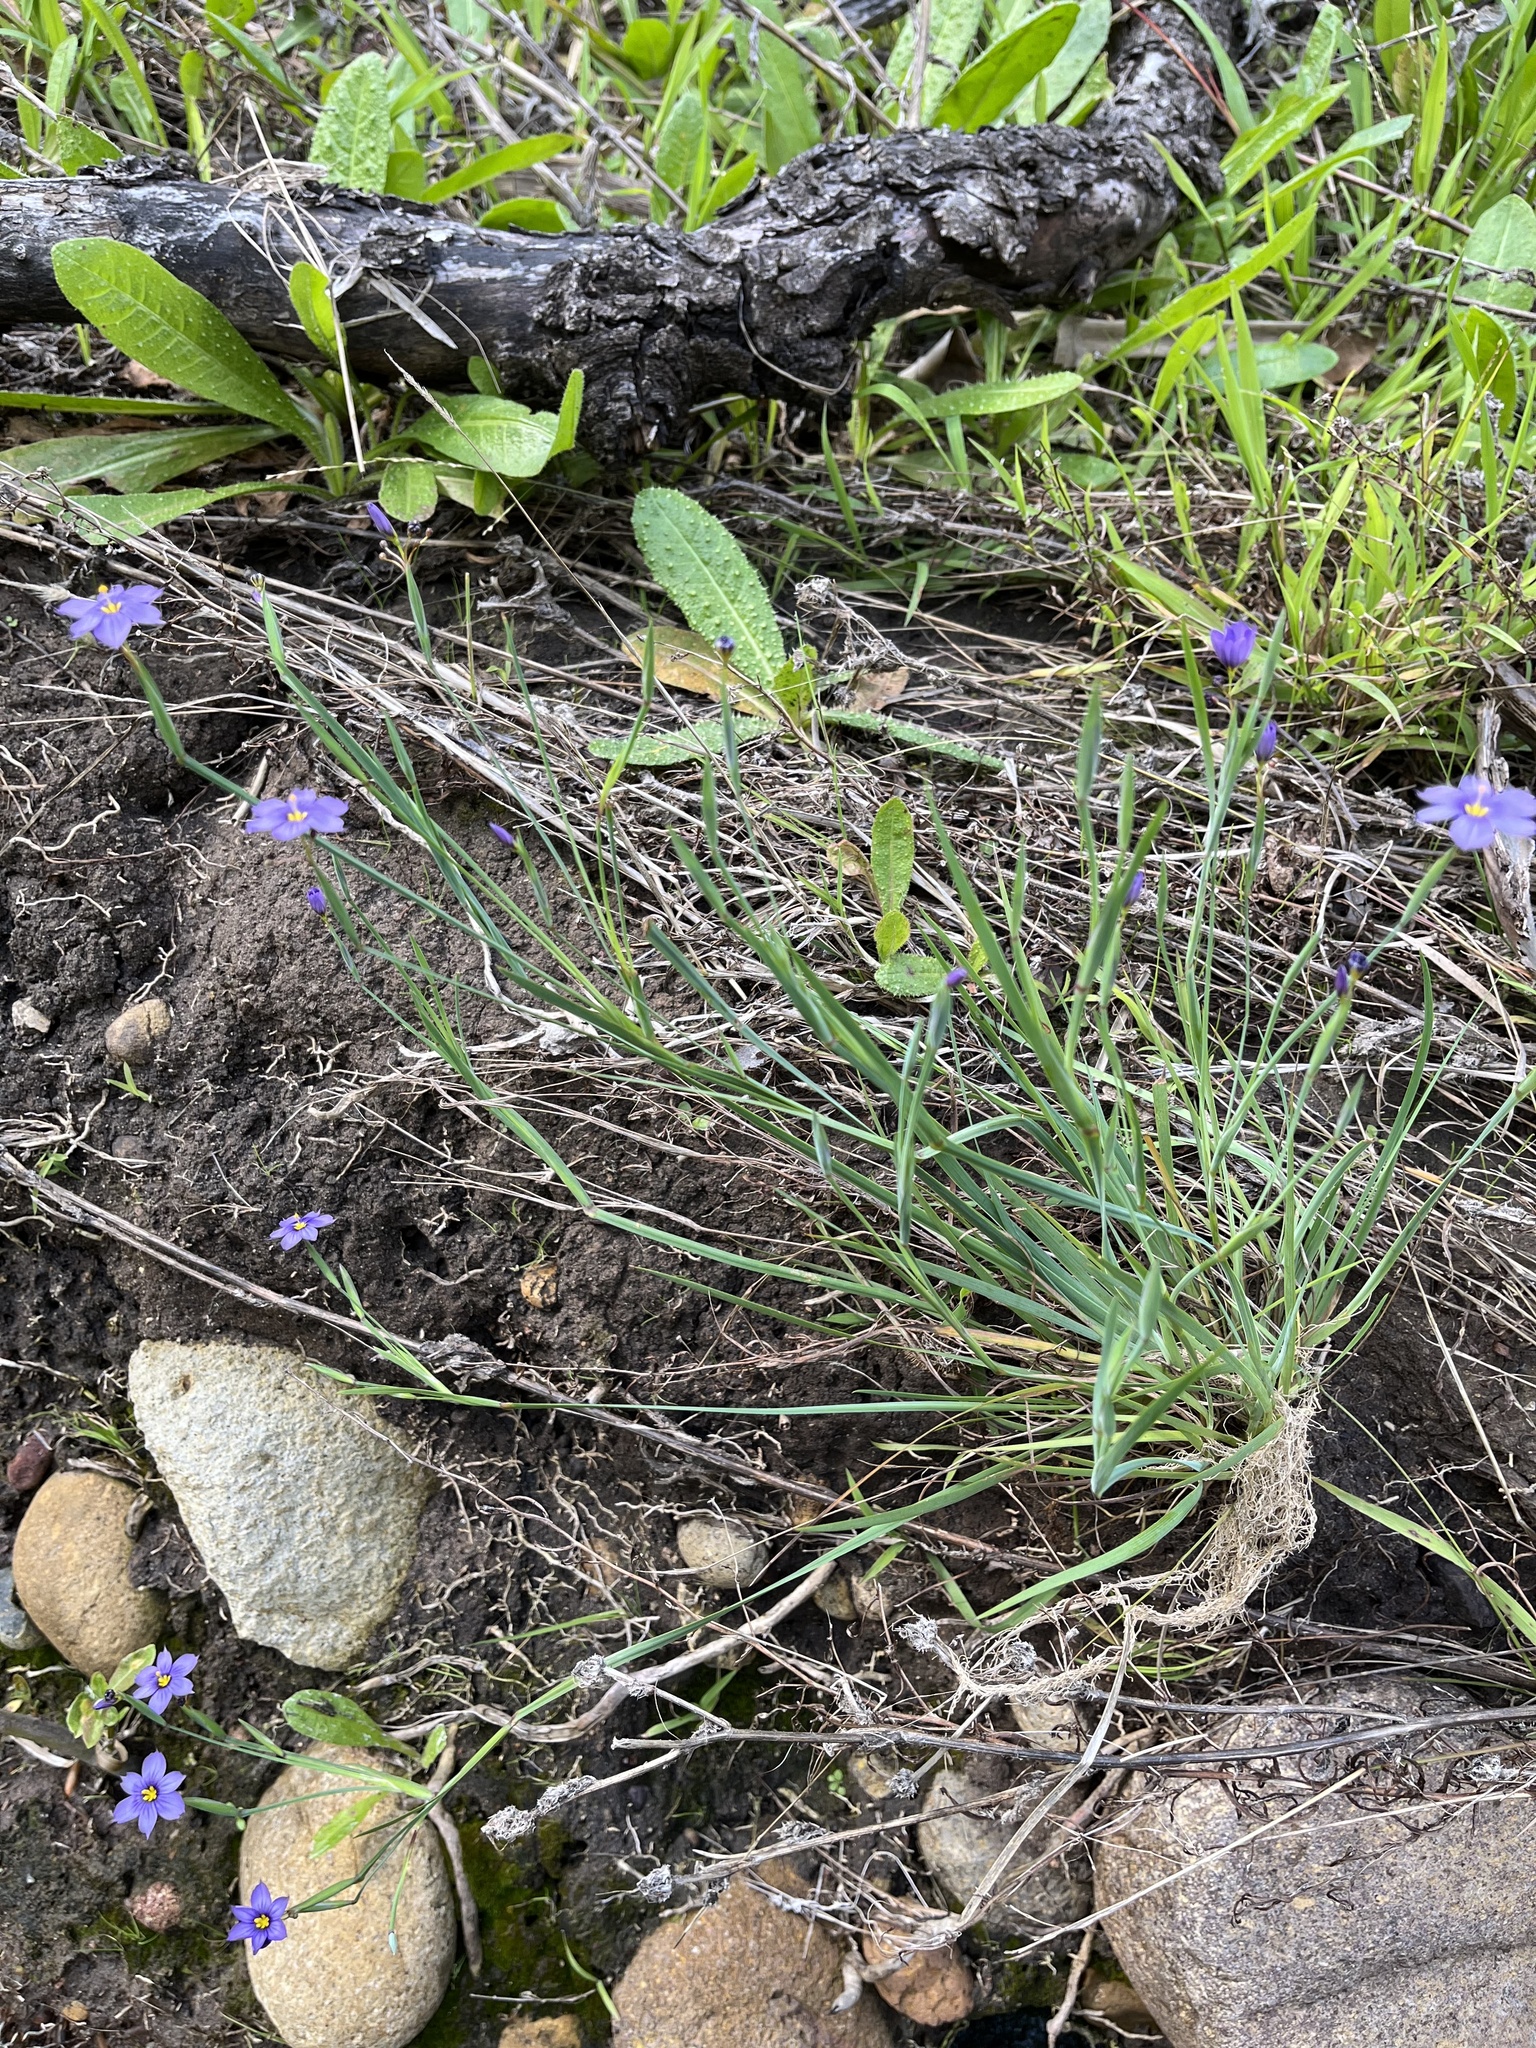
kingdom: Plantae
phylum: Tracheophyta
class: Liliopsida
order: Asparagales
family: Iridaceae
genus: Sisyrinchium
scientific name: Sisyrinchium bellum
